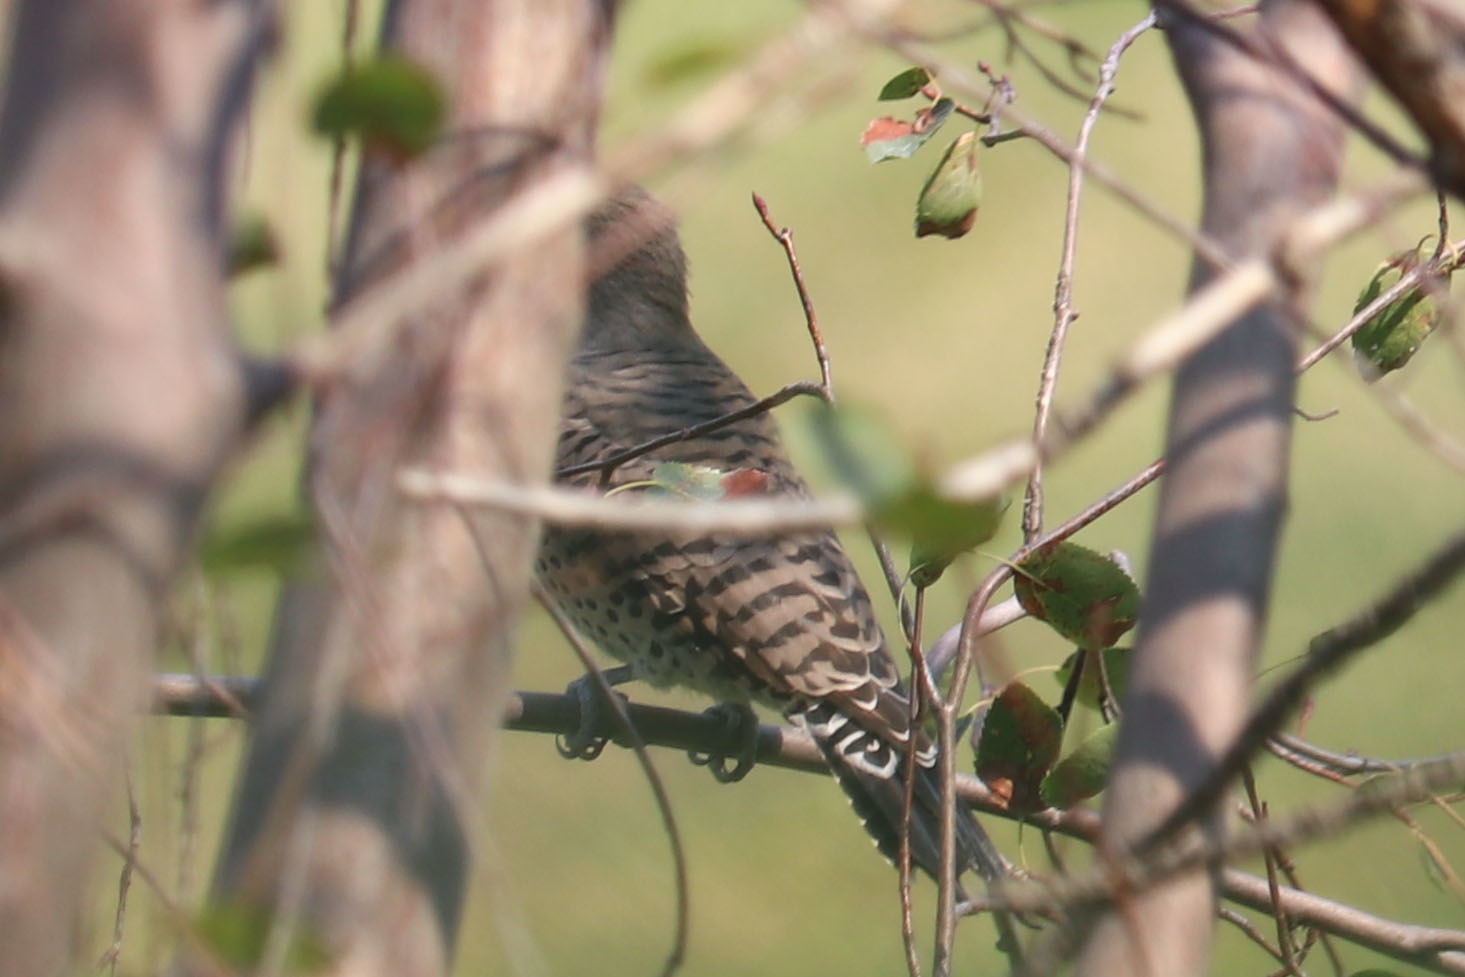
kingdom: Animalia
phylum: Chordata
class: Aves
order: Piciformes
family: Picidae
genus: Colaptes
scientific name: Colaptes auratus
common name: Northern flicker
